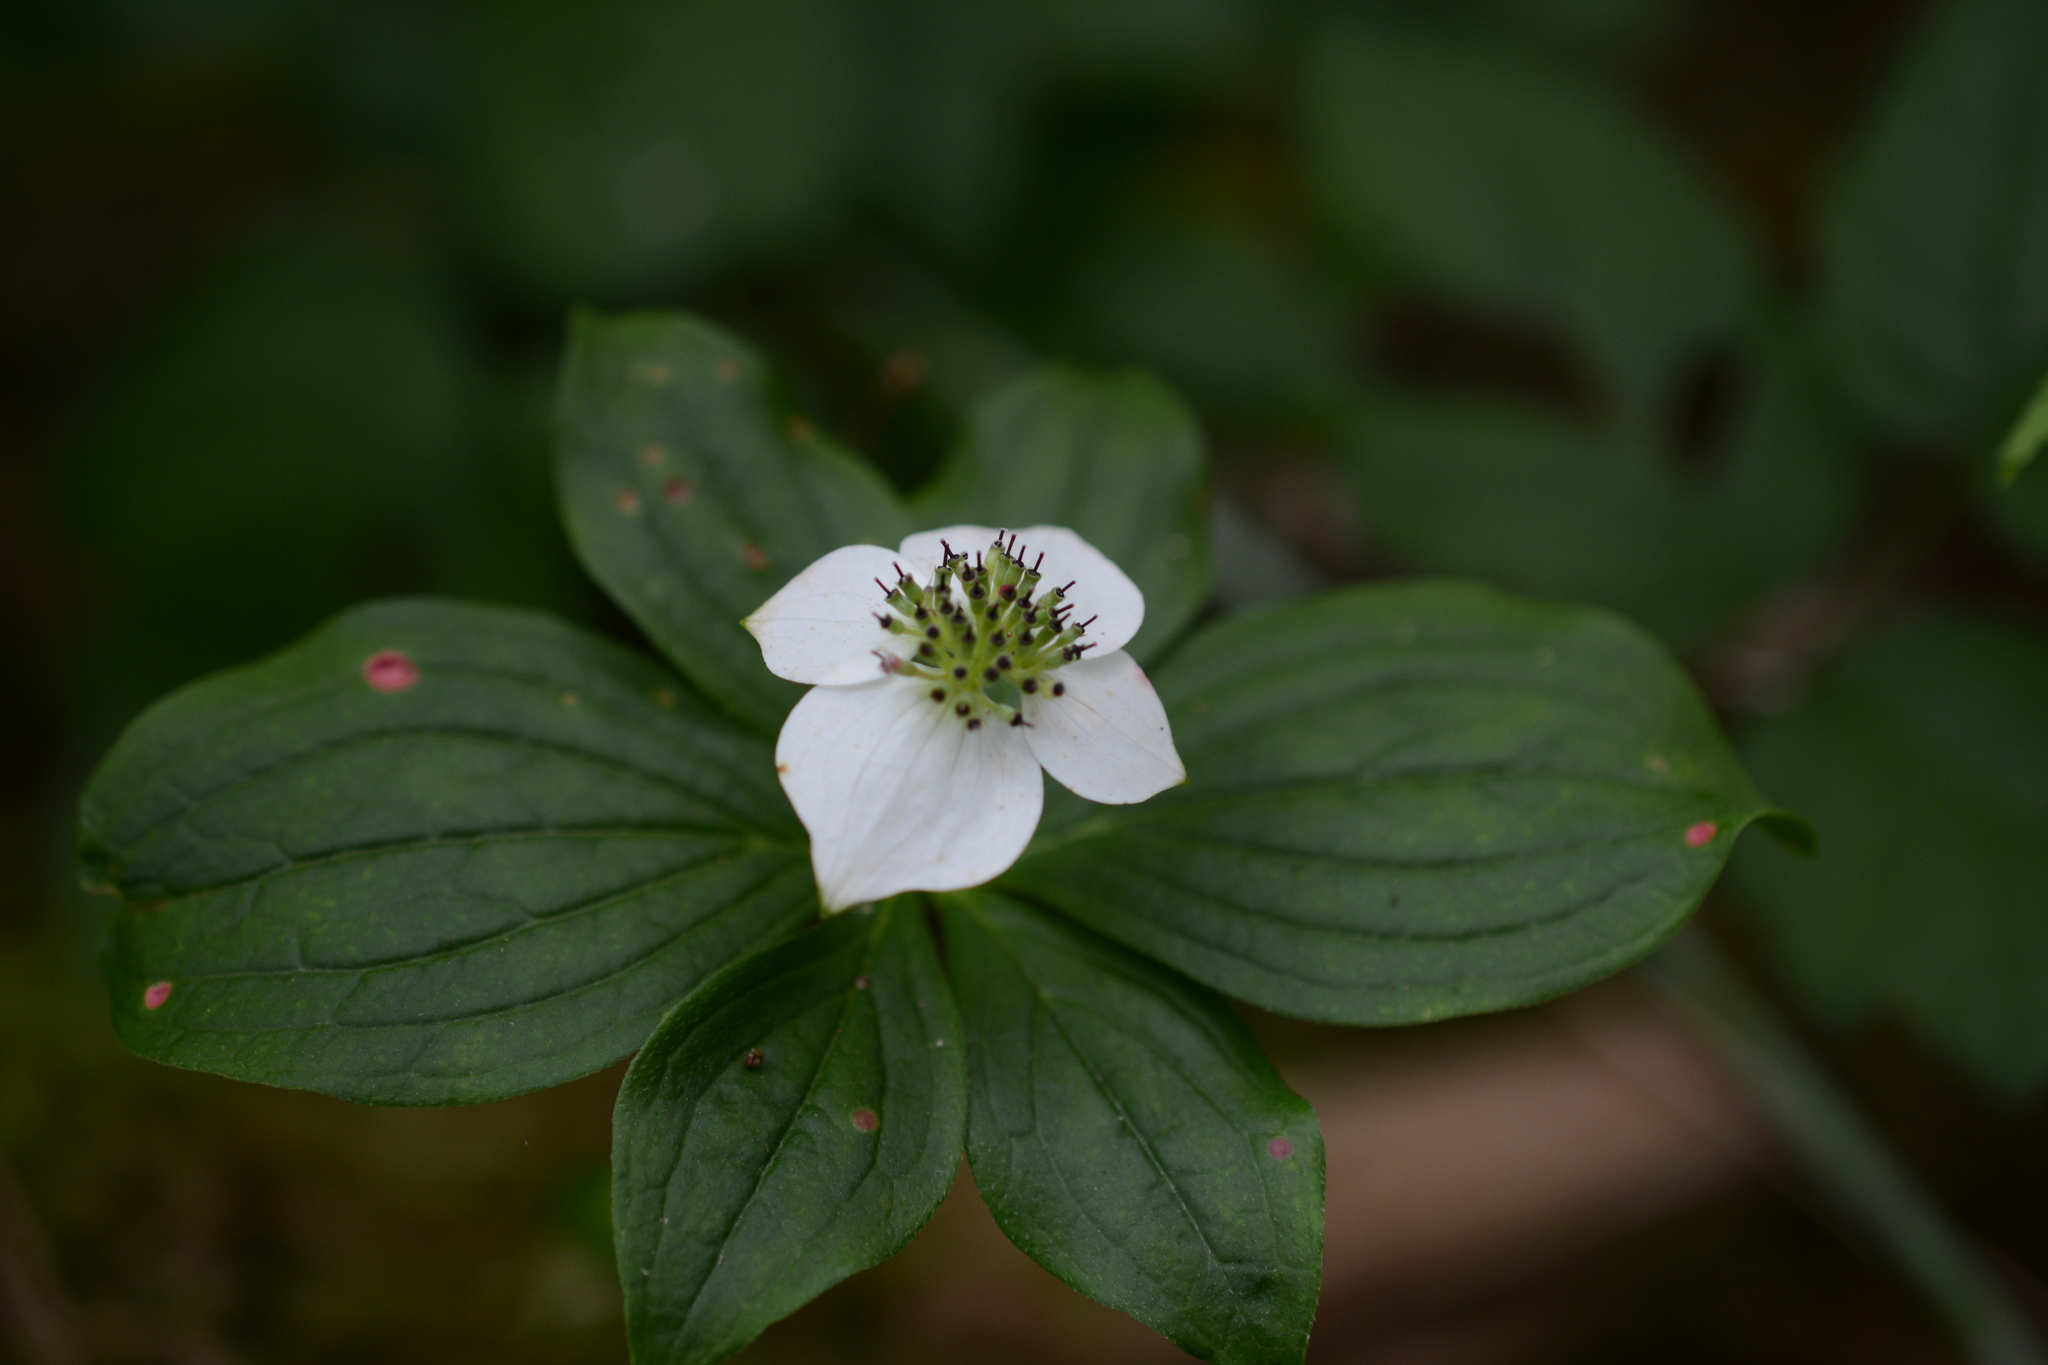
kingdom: Plantae
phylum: Tracheophyta
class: Magnoliopsida
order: Cornales
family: Cornaceae
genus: Cornus
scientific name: Cornus unalaschkensis
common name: Alaska bunchberry
